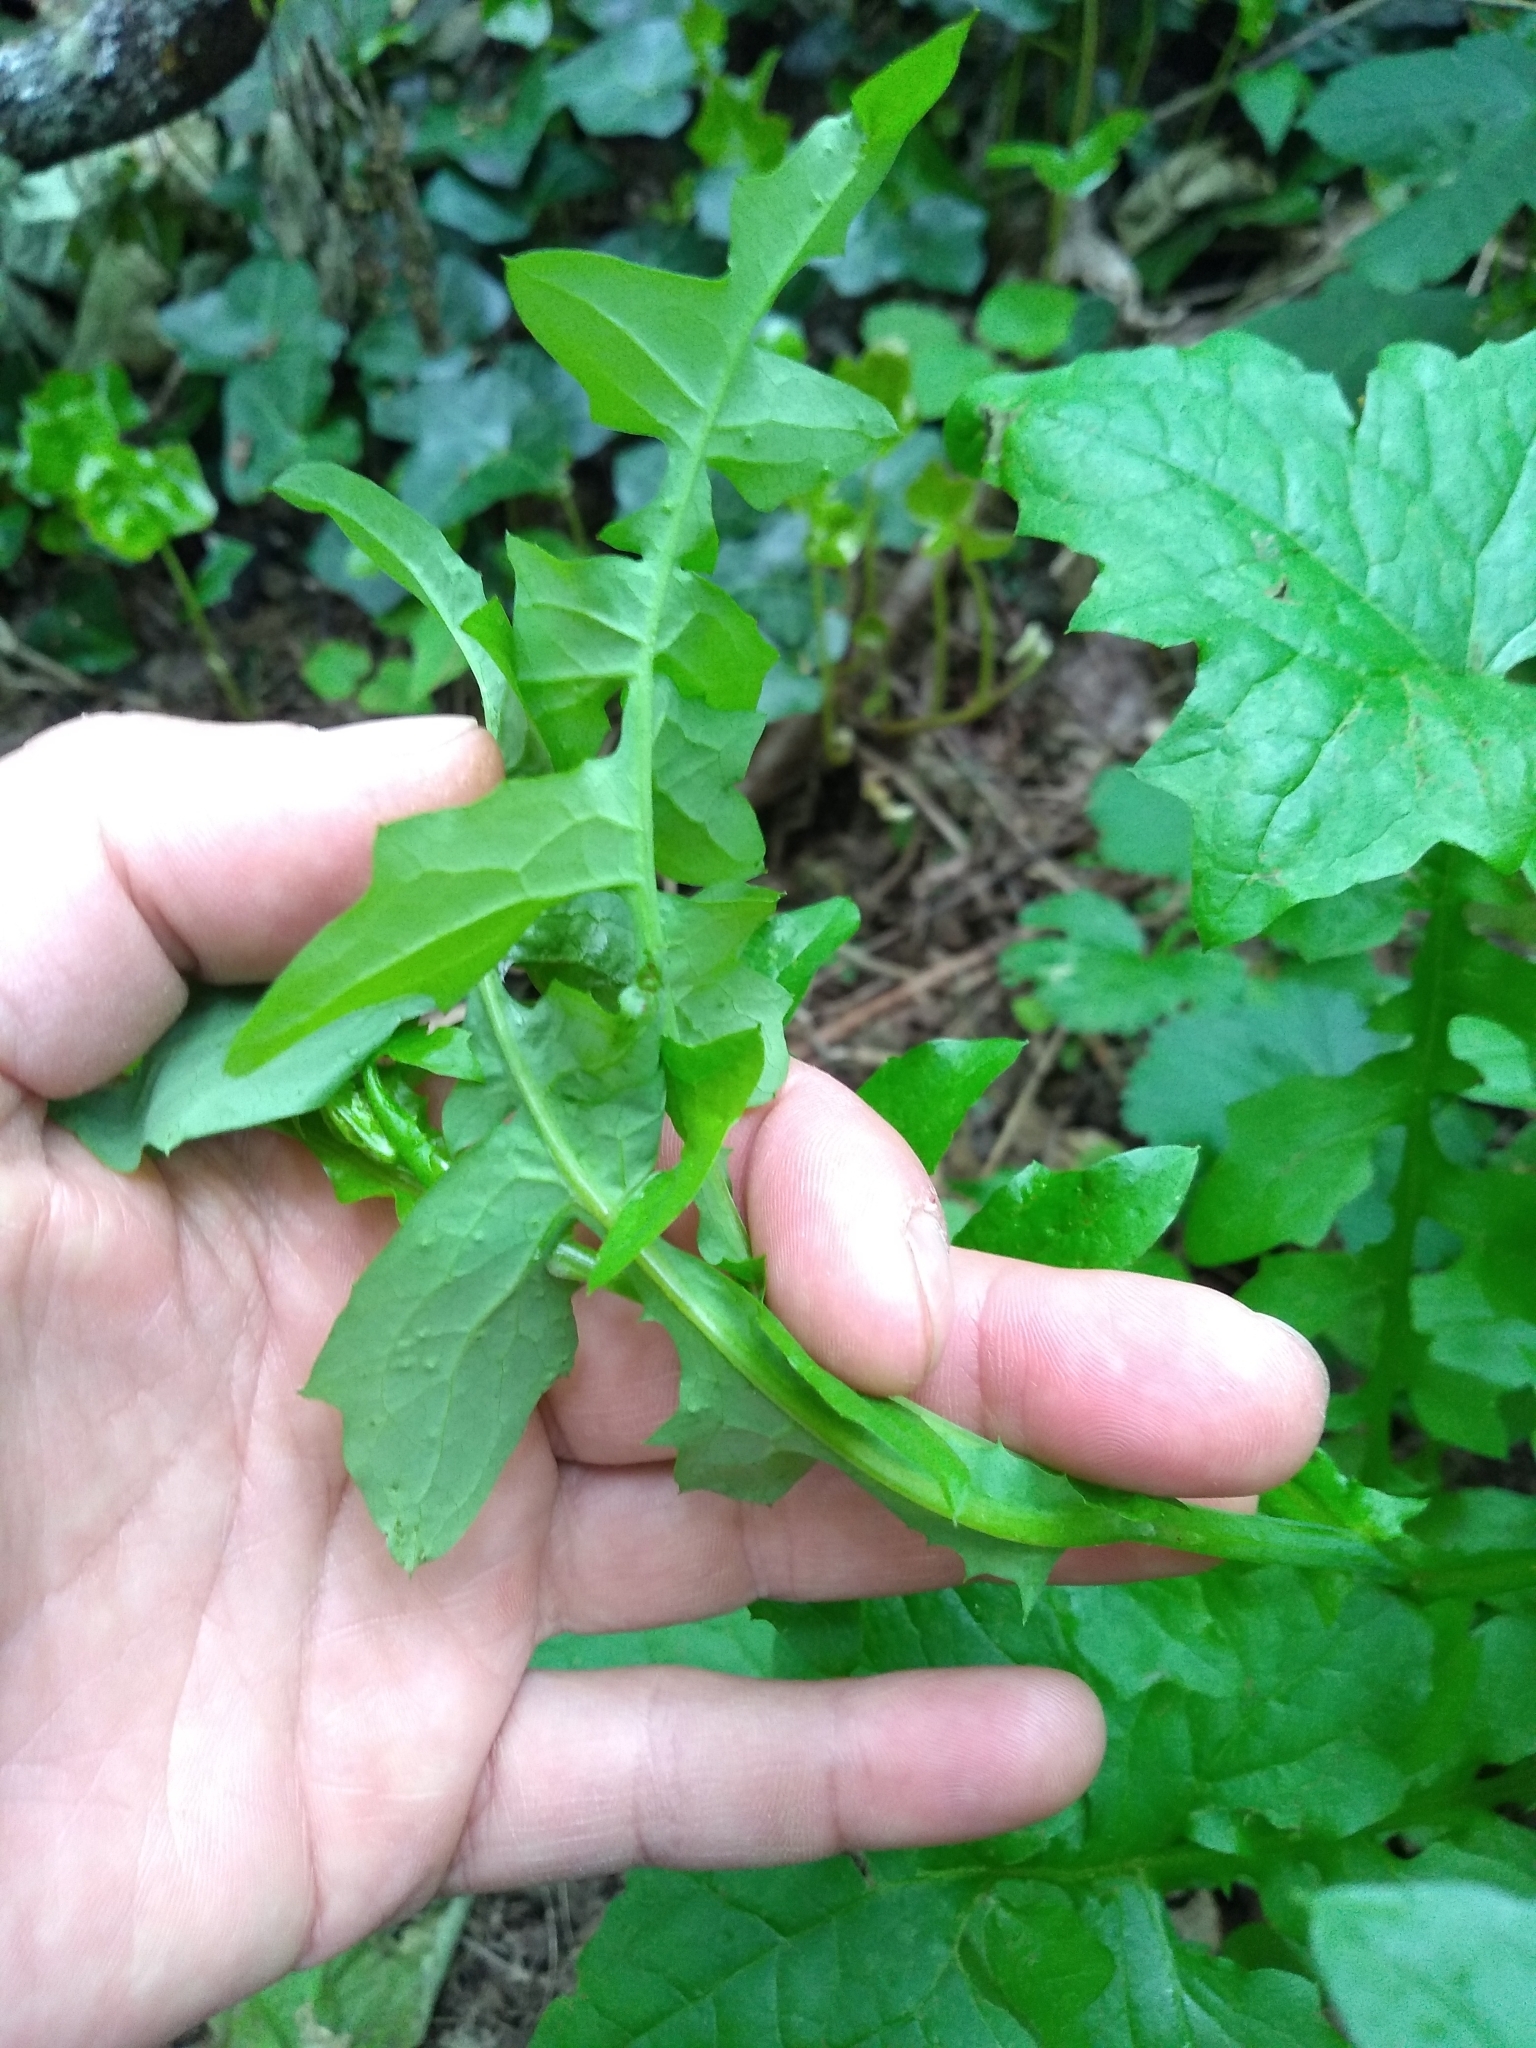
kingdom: Plantae
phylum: Tracheophyta
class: Magnoliopsida
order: Asterales
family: Asteraceae
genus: Mycelis
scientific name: Mycelis muralis
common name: Wall lettuce
